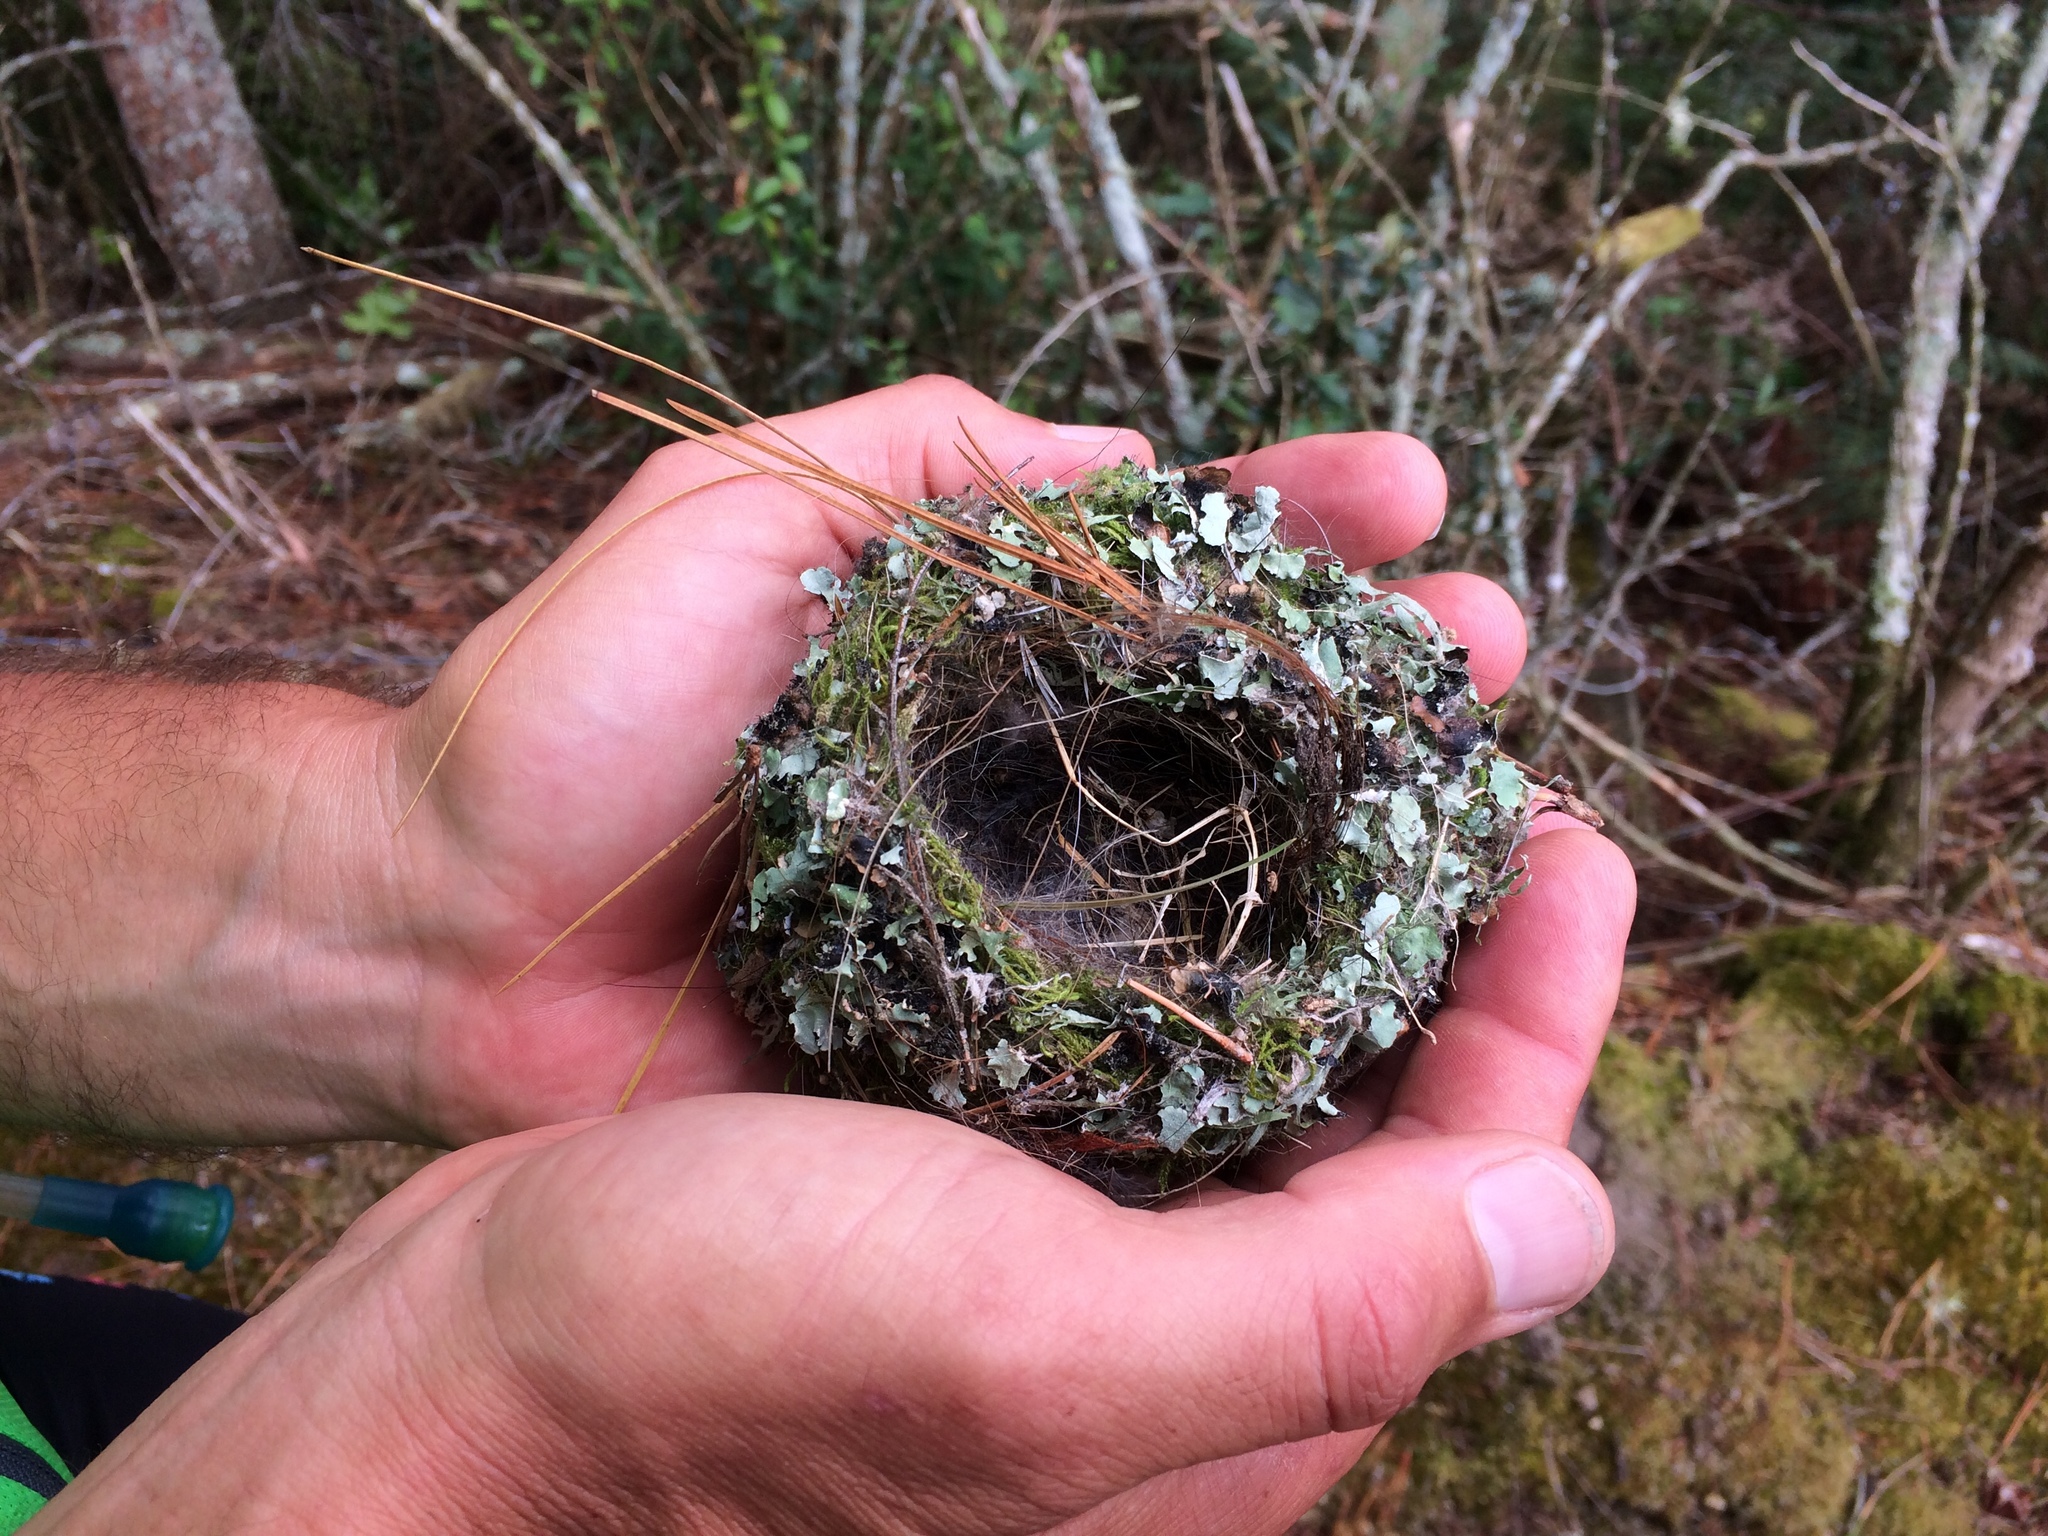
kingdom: Animalia
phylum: Chordata
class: Aves
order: Passeriformes
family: Rhipiduridae
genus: Rhipidura
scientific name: Rhipidura fuliginosa
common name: New zealand fantail
